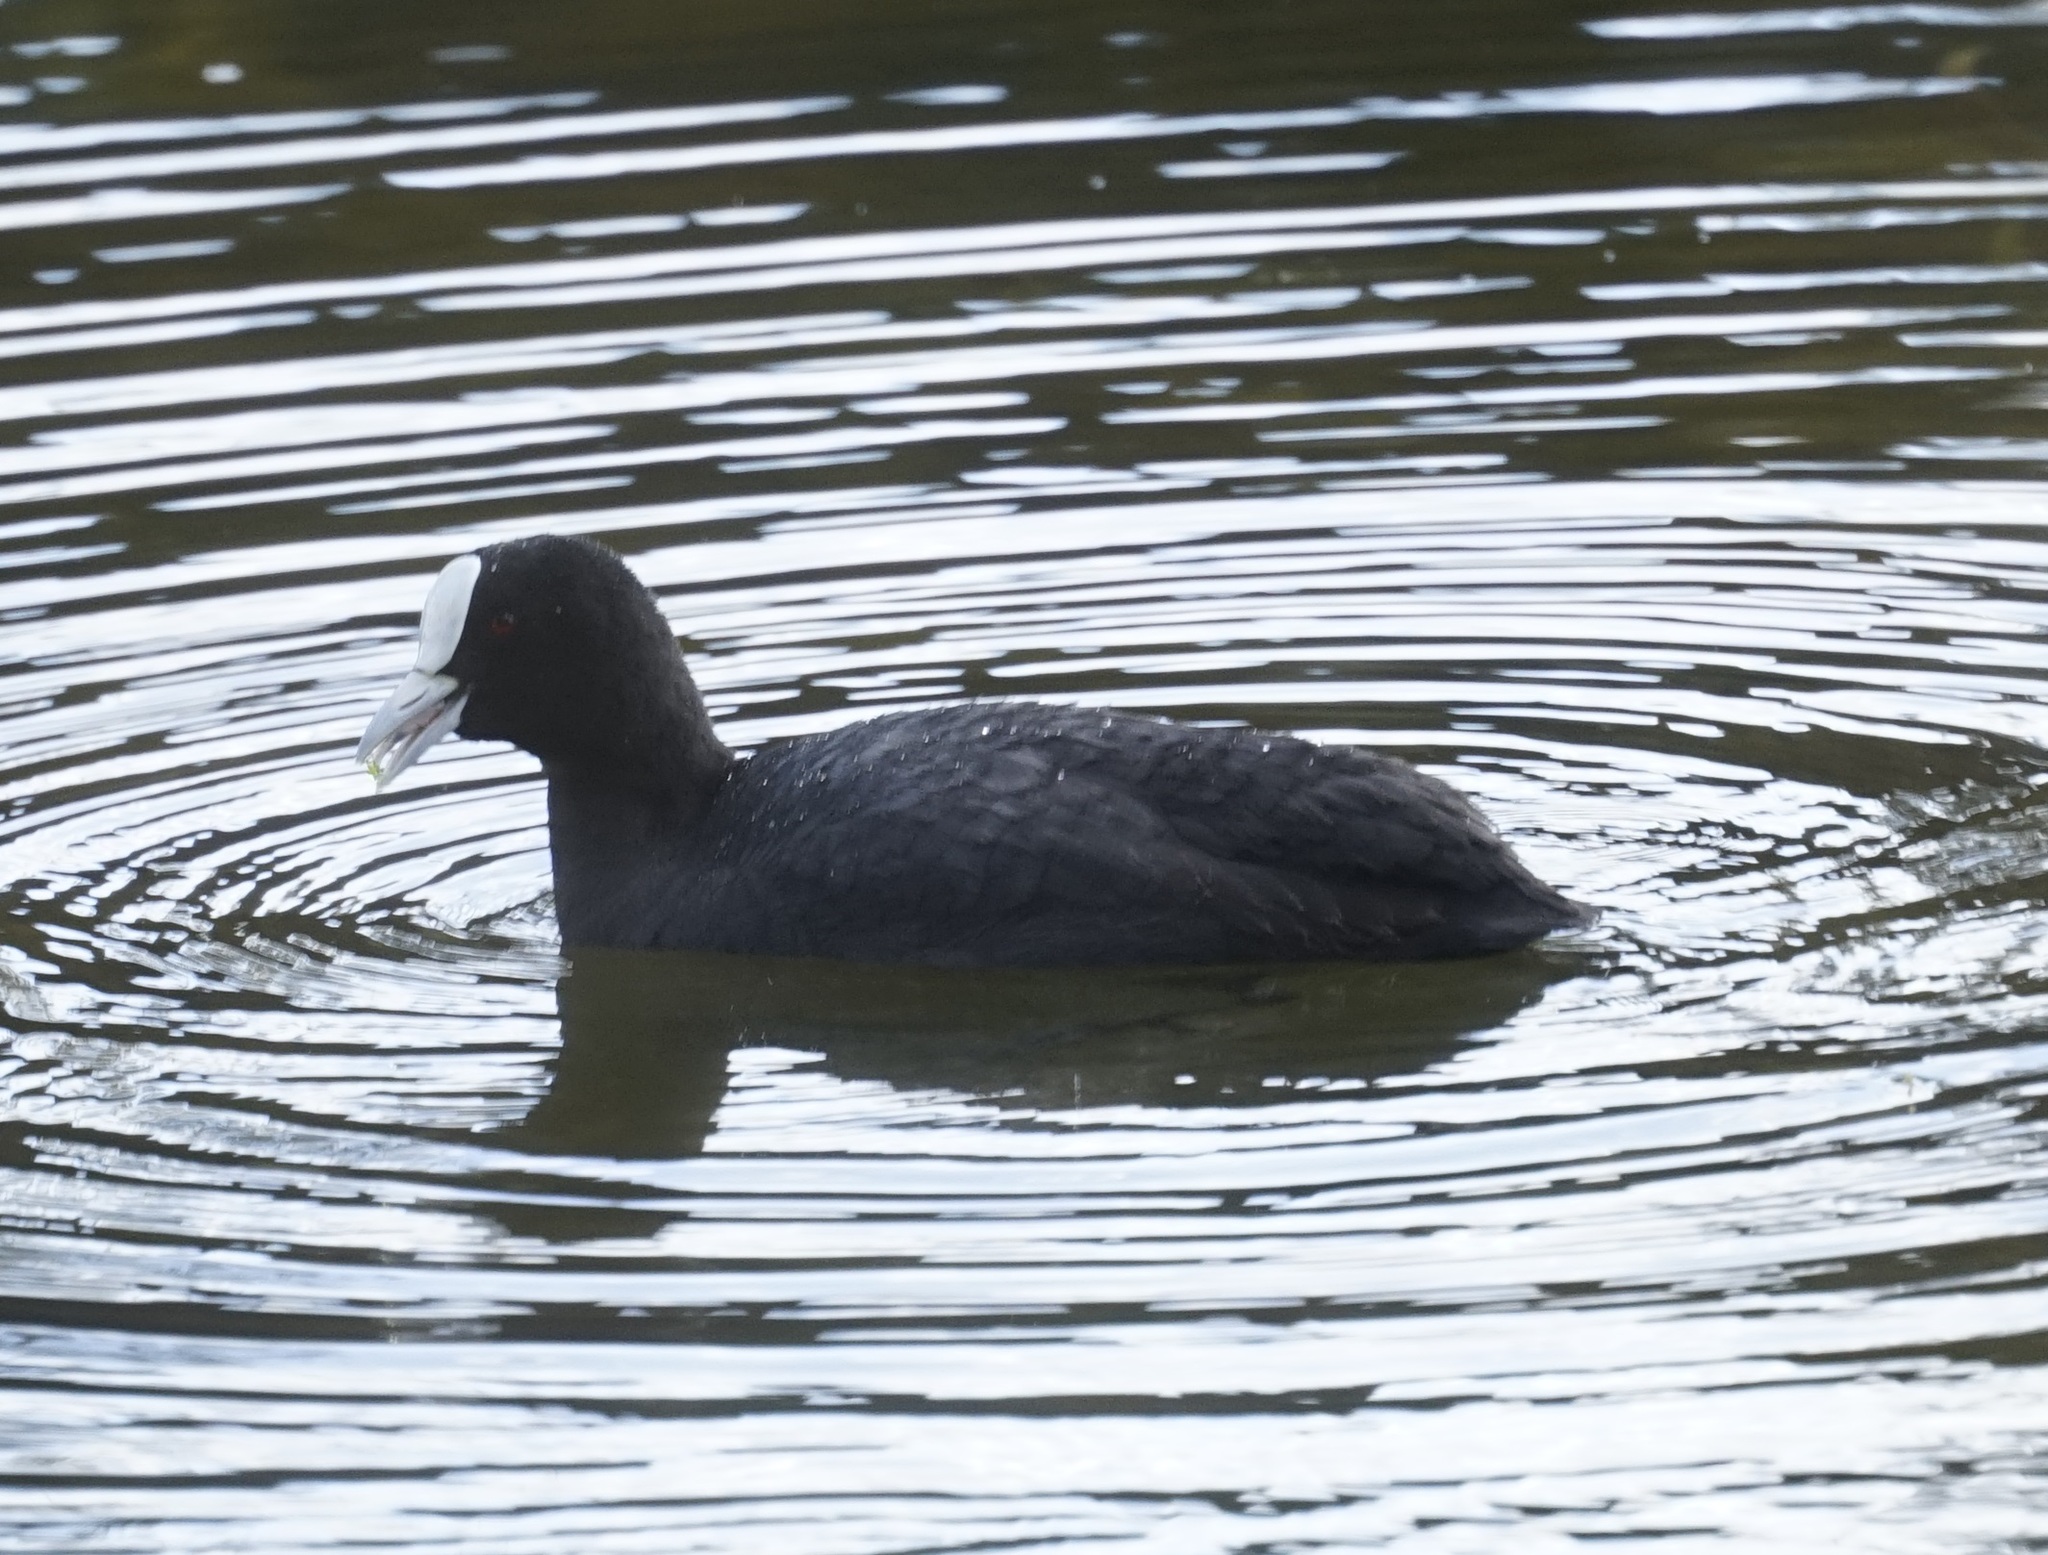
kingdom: Animalia
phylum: Chordata
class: Aves
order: Gruiformes
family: Rallidae
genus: Fulica
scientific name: Fulica atra
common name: Eurasian coot
